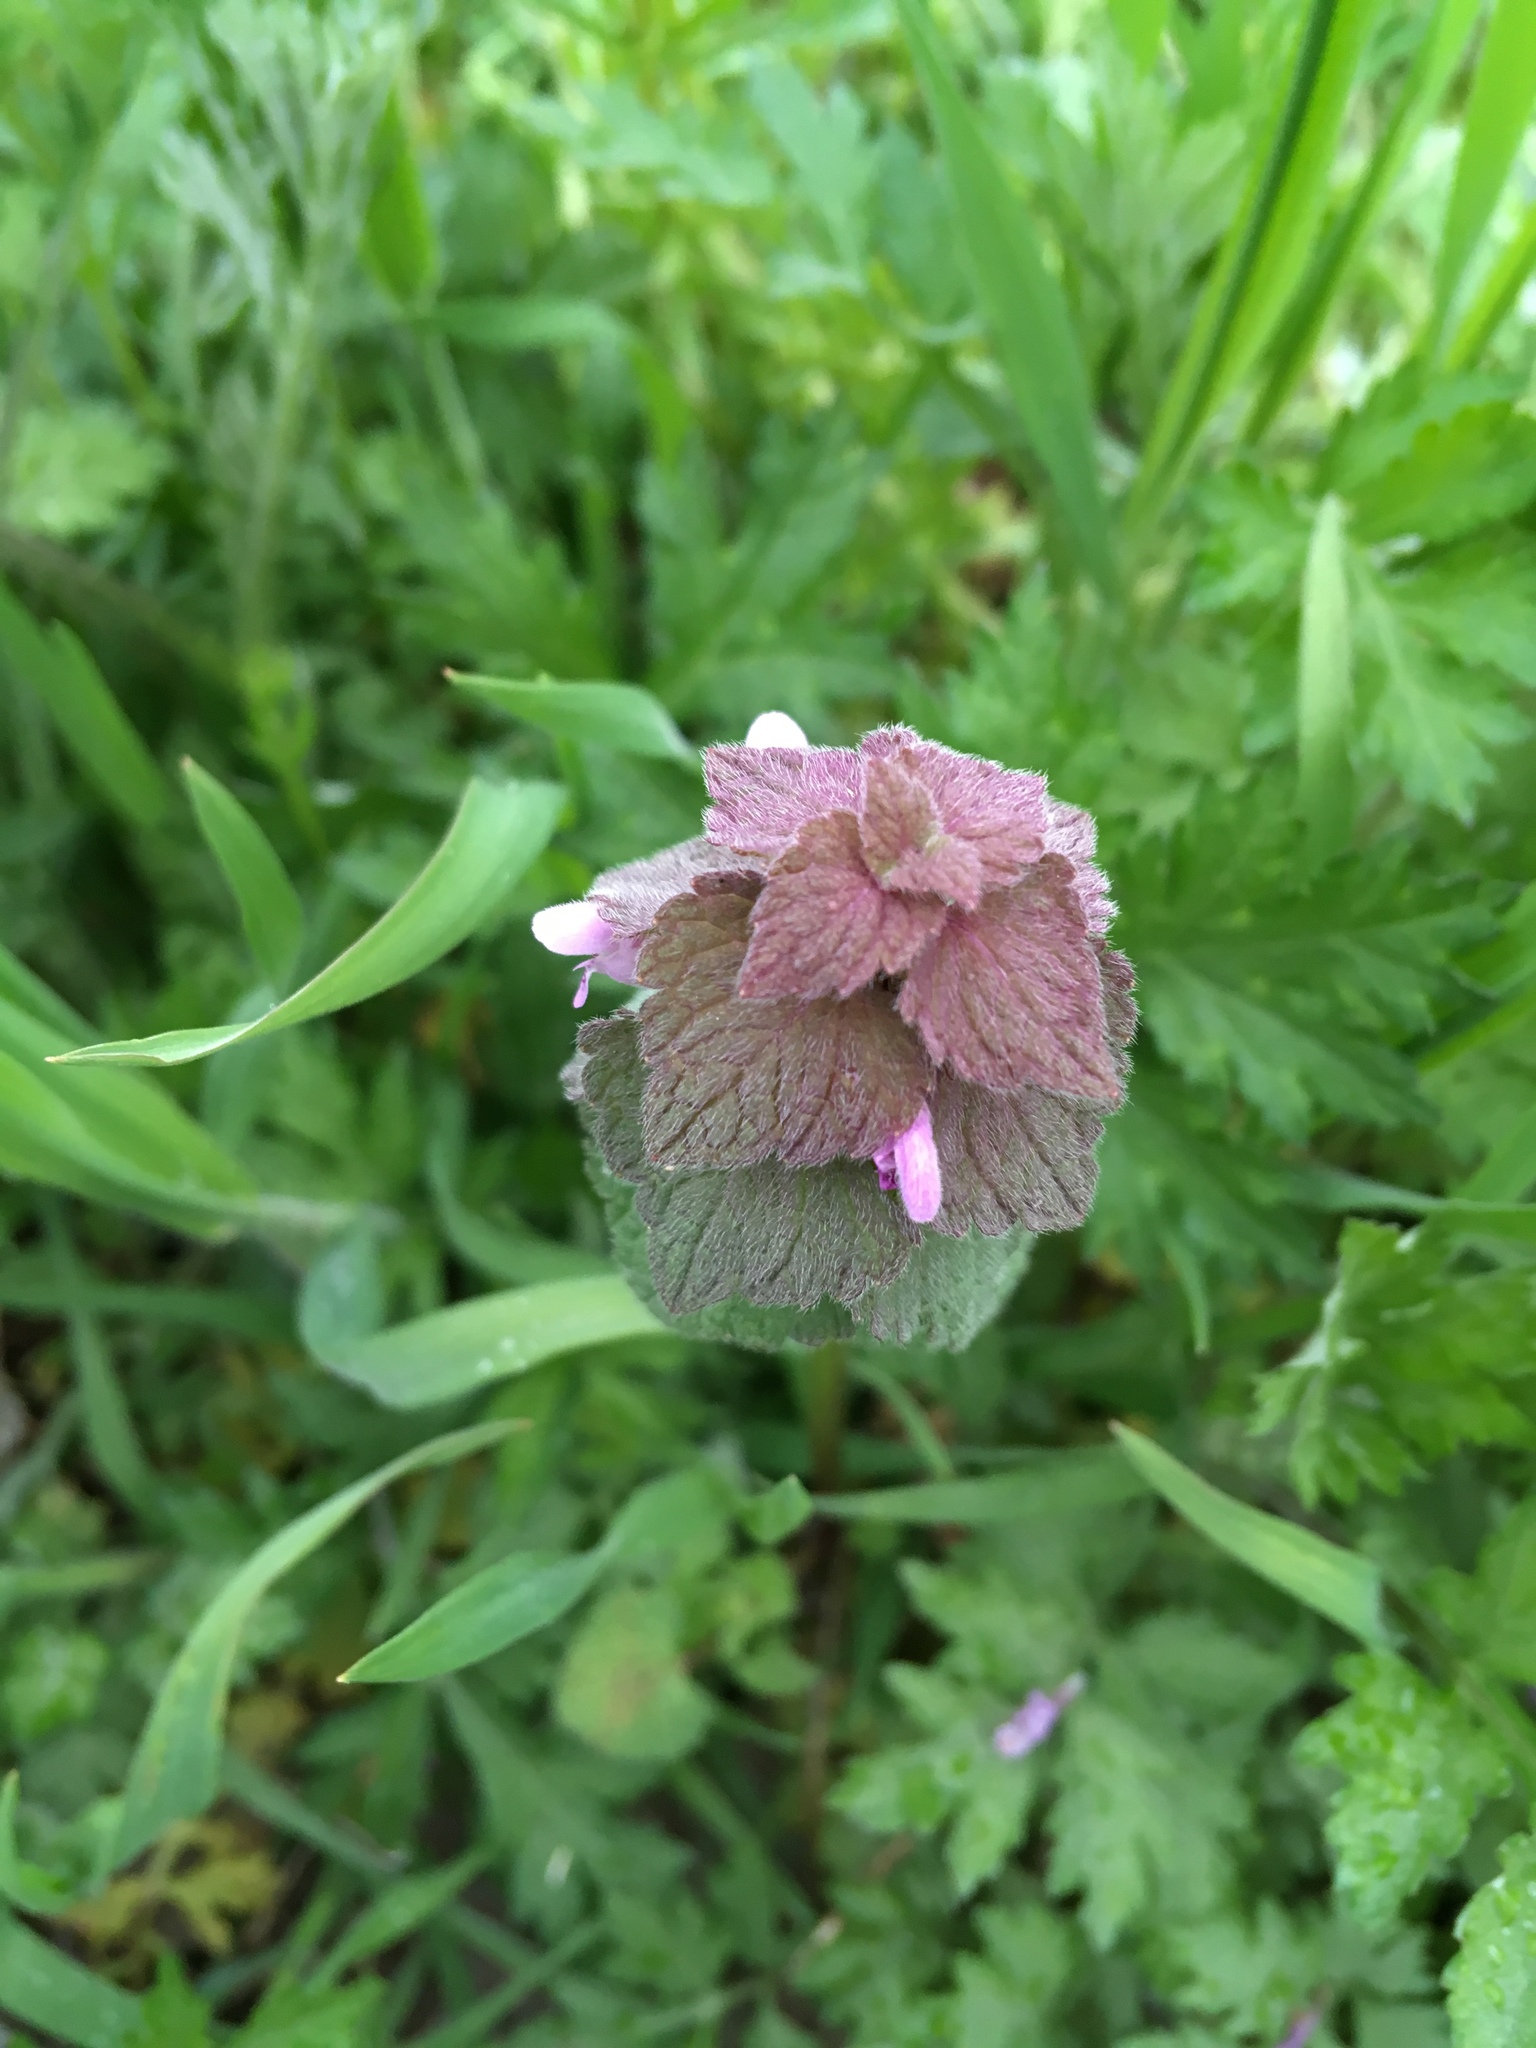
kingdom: Plantae
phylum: Tracheophyta
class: Magnoliopsida
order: Lamiales
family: Lamiaceae
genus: Lamium
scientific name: Lamium purpureum
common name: Red dead-nettle
